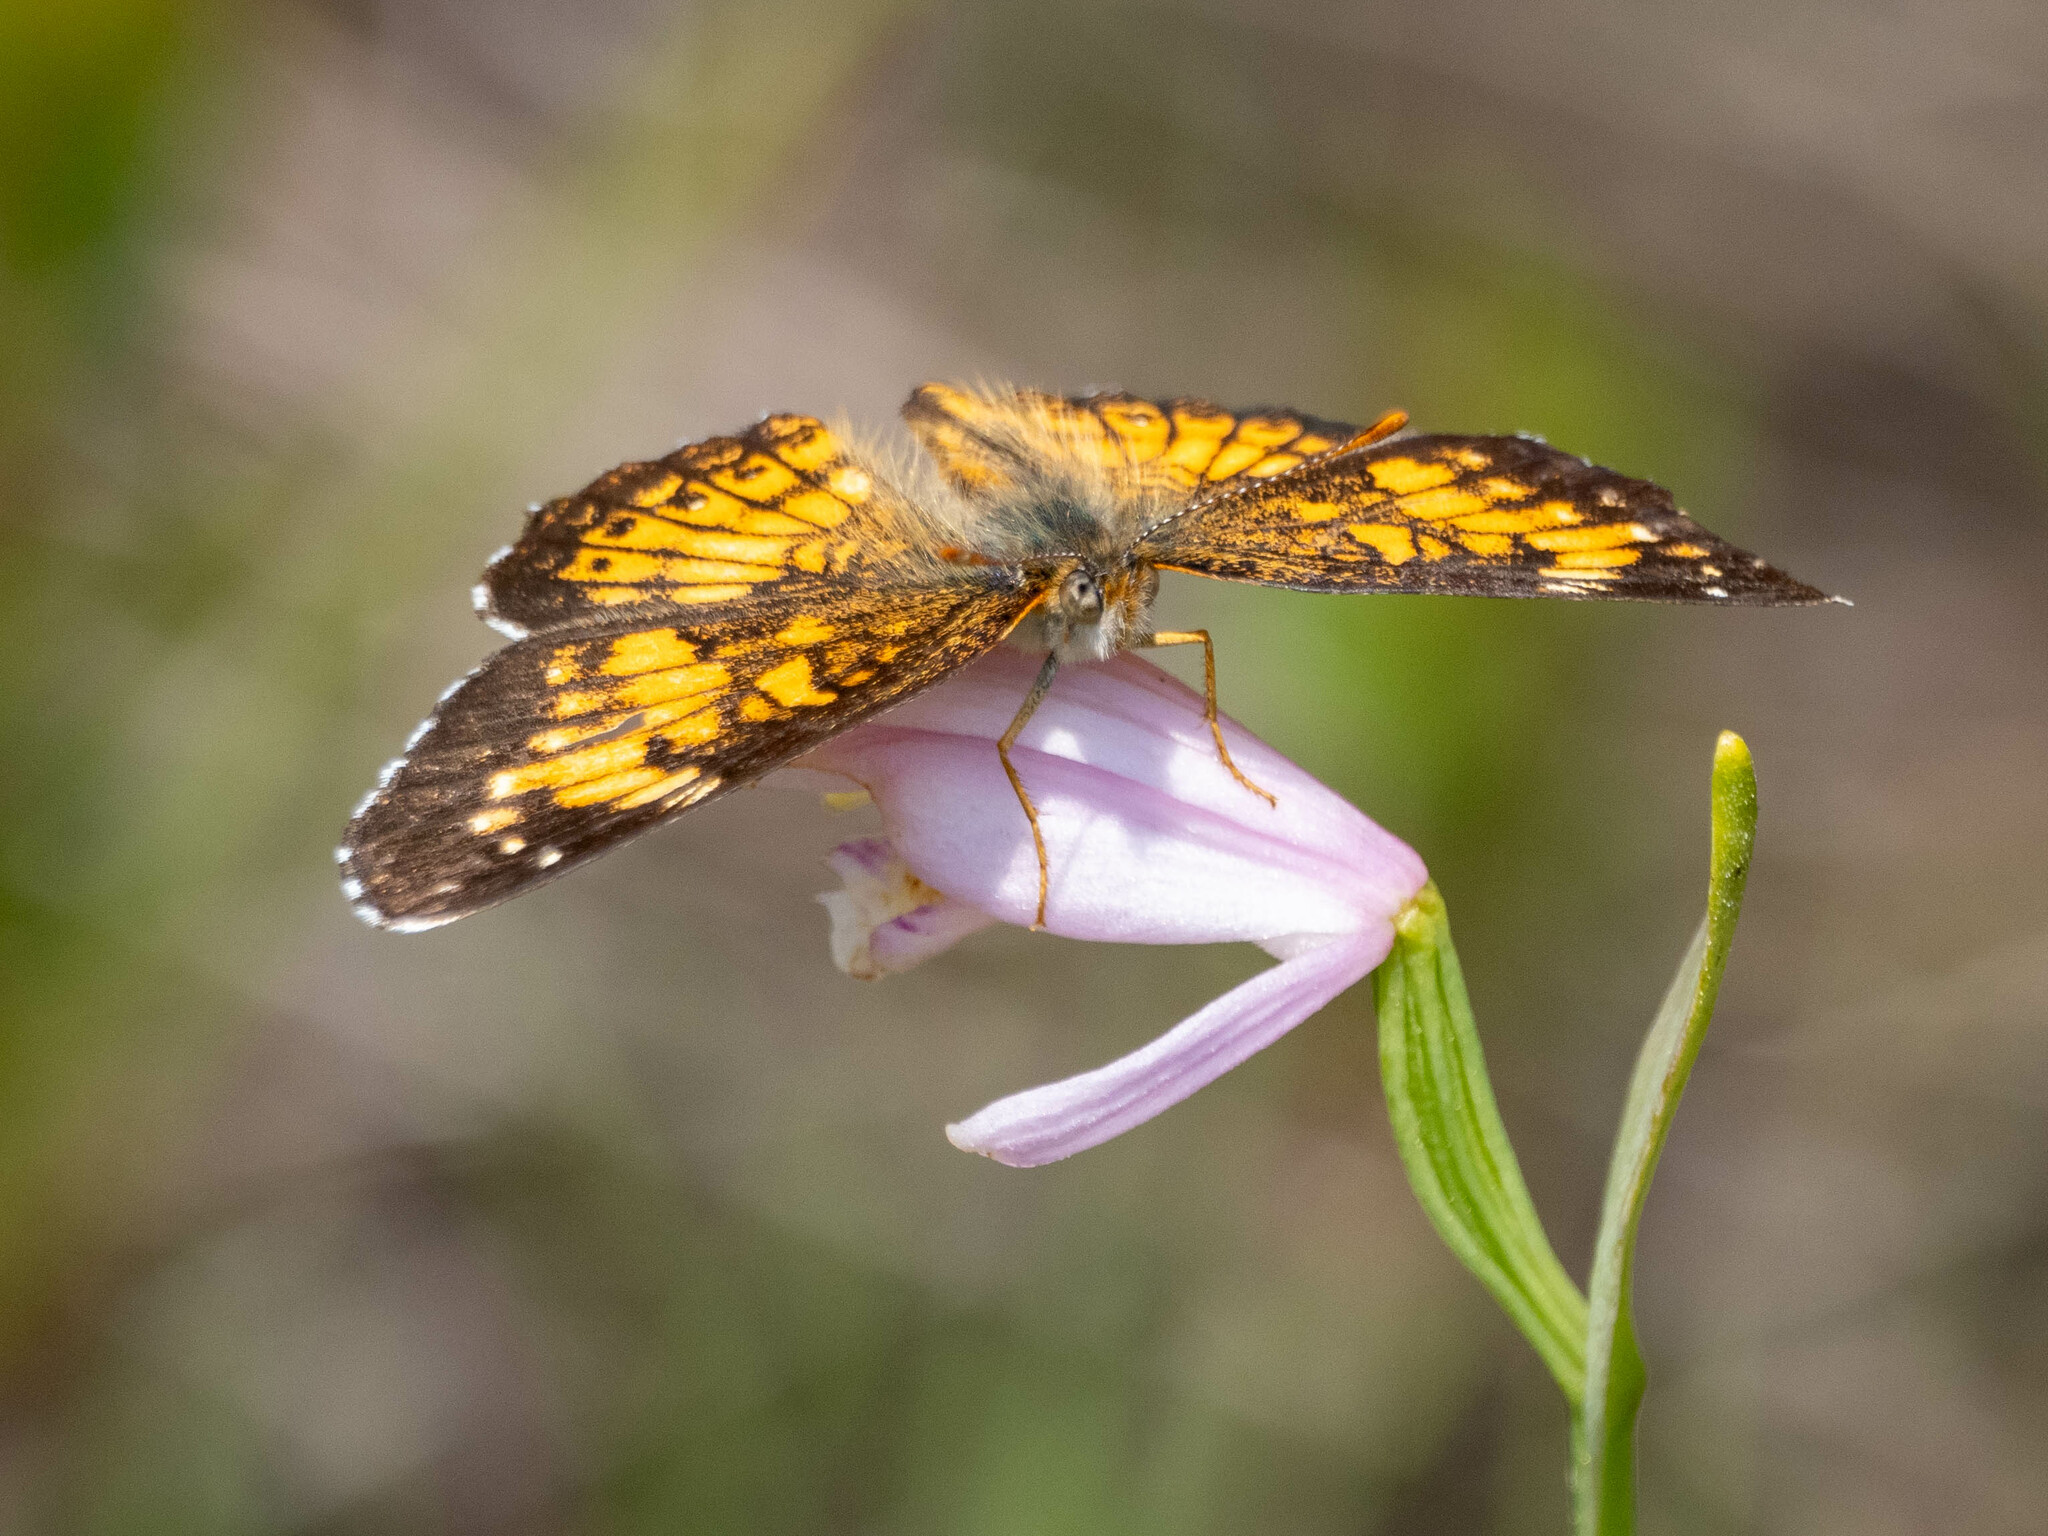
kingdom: Animalia
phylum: Arthropoda
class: Insecta
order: Lepidoptera
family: Nymphalidae
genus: Chlosyne
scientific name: Chlosyne harrisii
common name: Harris's checkerspot
